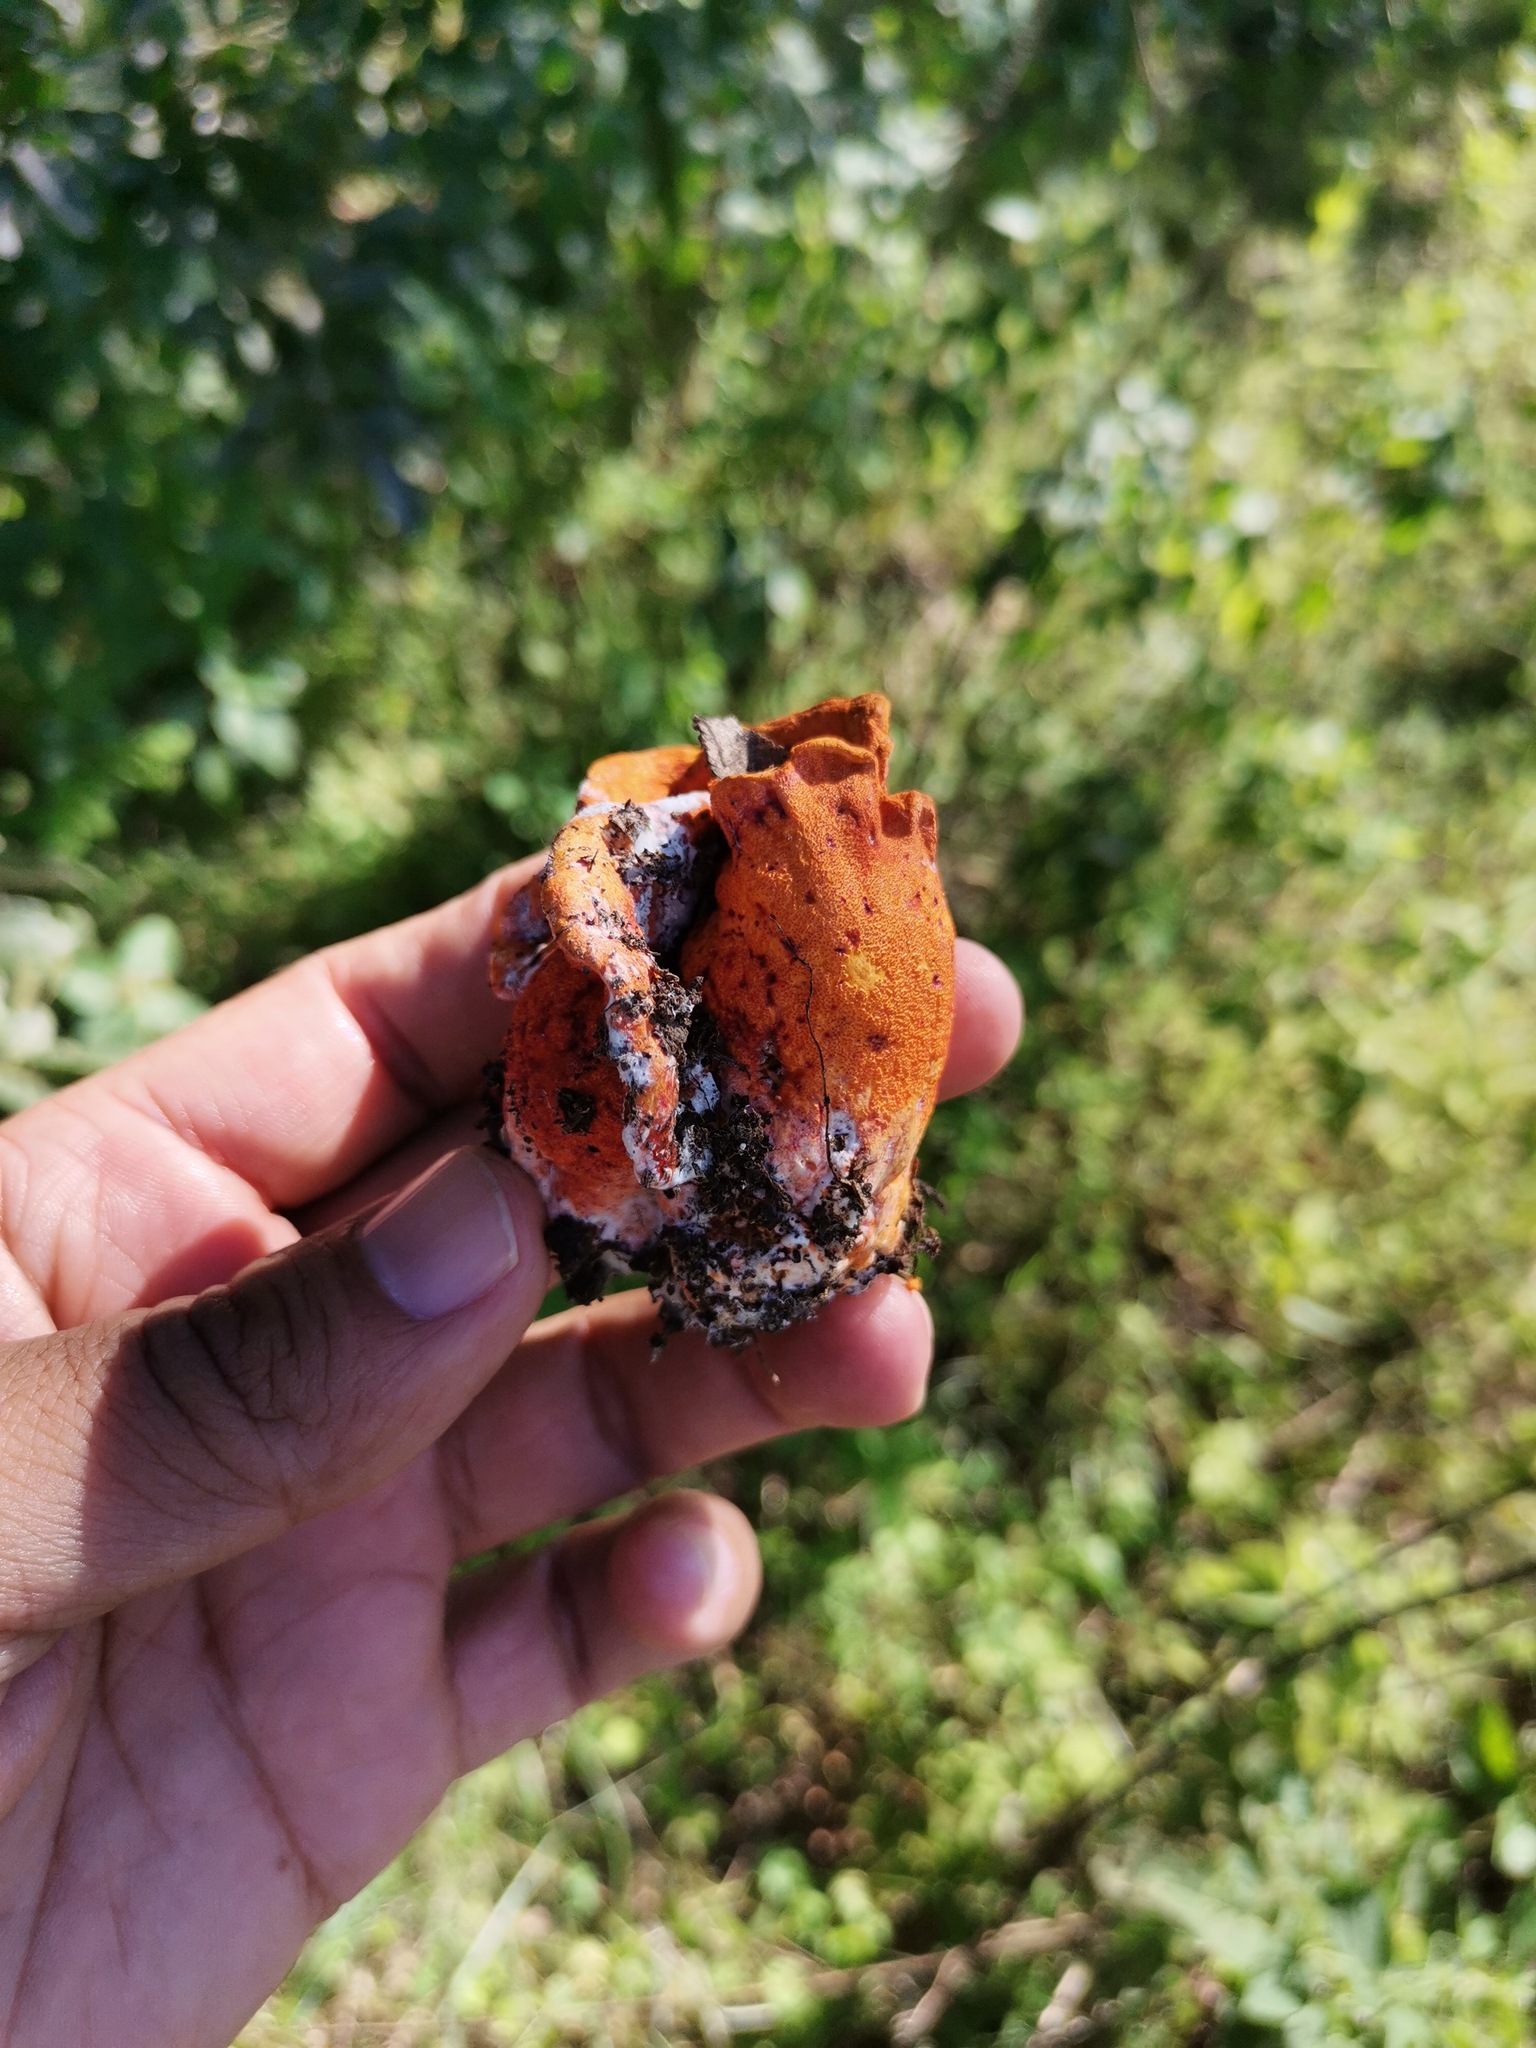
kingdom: Fungi
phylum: Ascomycota
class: Sordariomycetes
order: Hypocreales
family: Hypocreaceae
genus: Hypomyces
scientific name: Hypomyces lactifluorum
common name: Lobster mushroom
